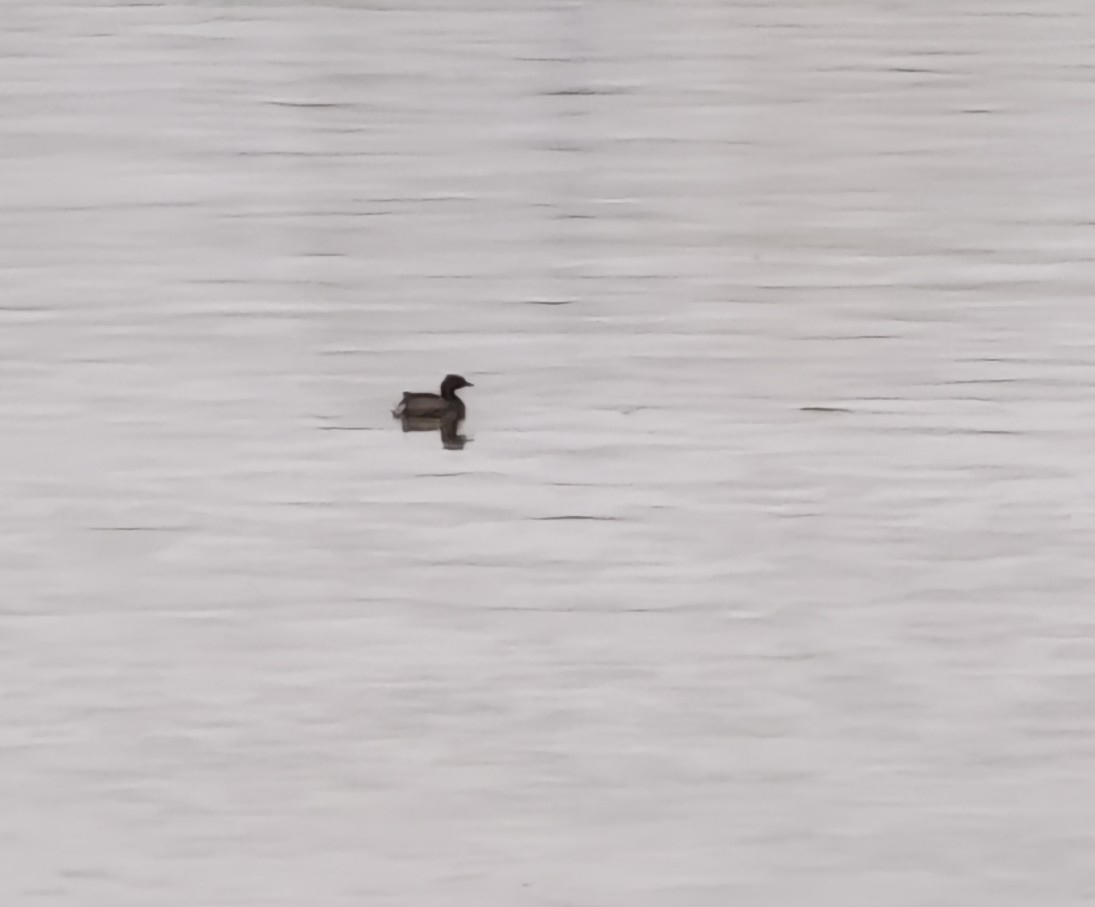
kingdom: Animalia
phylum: Chordata
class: Aves
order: Podicipediformes
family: Podicipedidae
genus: Tachybaptus
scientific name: Tachybaptus ruficollis
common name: Little grebe
